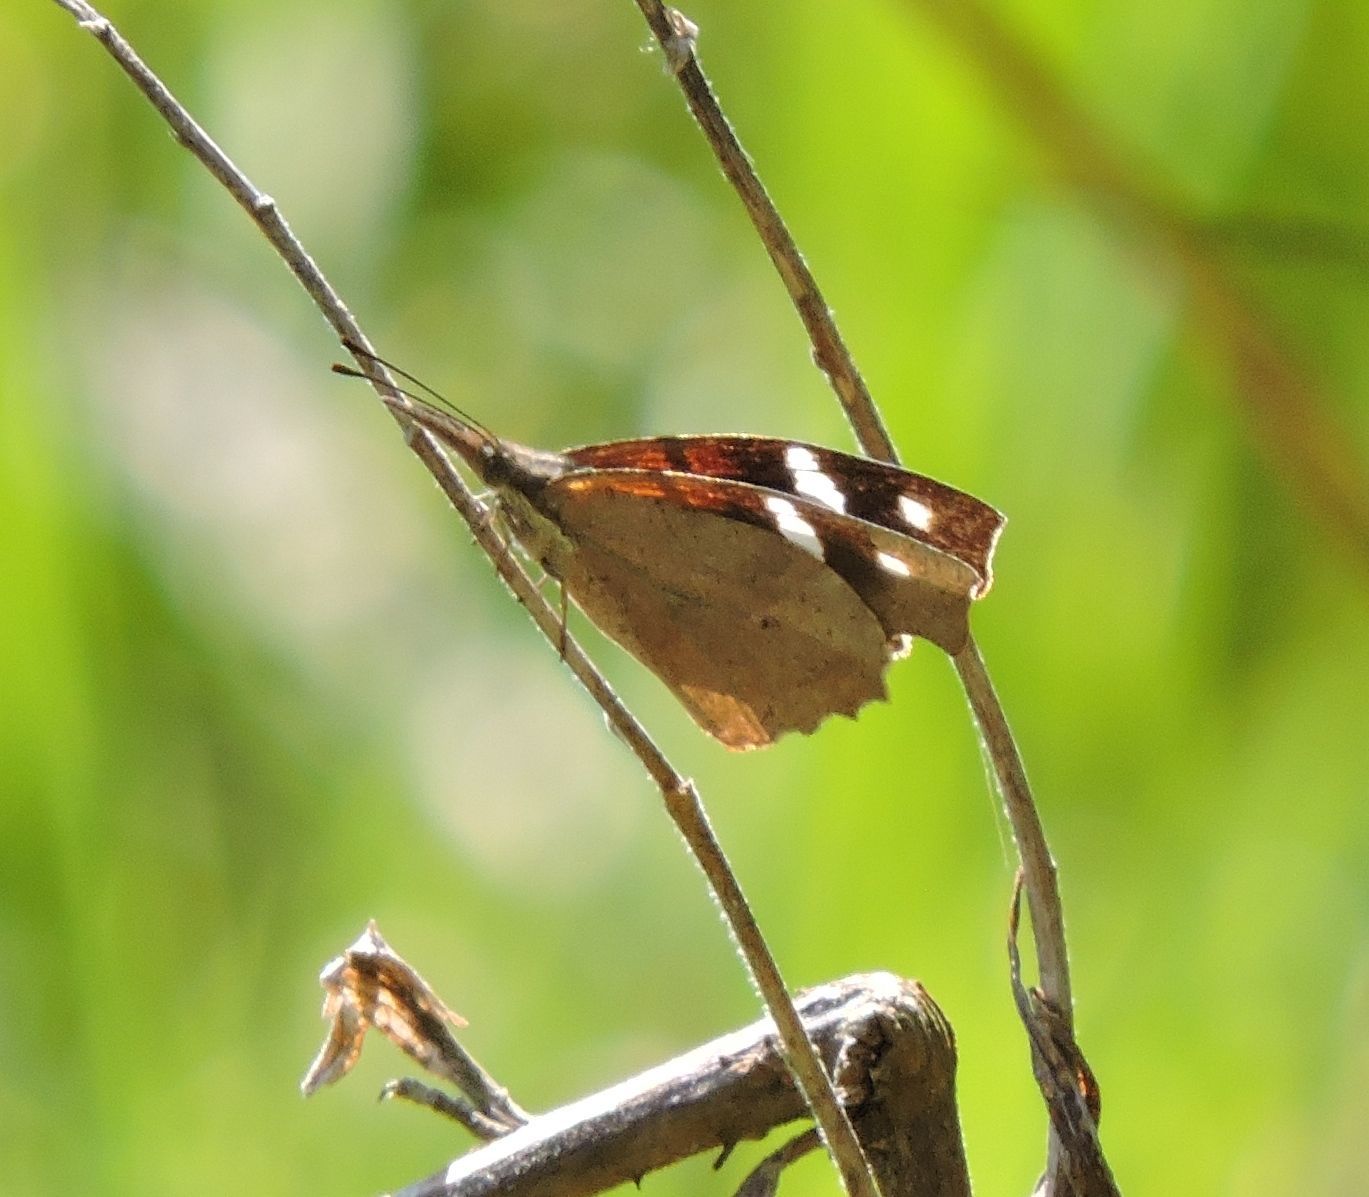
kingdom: Animalia
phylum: Arthropoda
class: Insecta
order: Lepidoptera
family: Nymphalidae
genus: Libytheana
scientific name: Libytheana carinenta
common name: American snout
